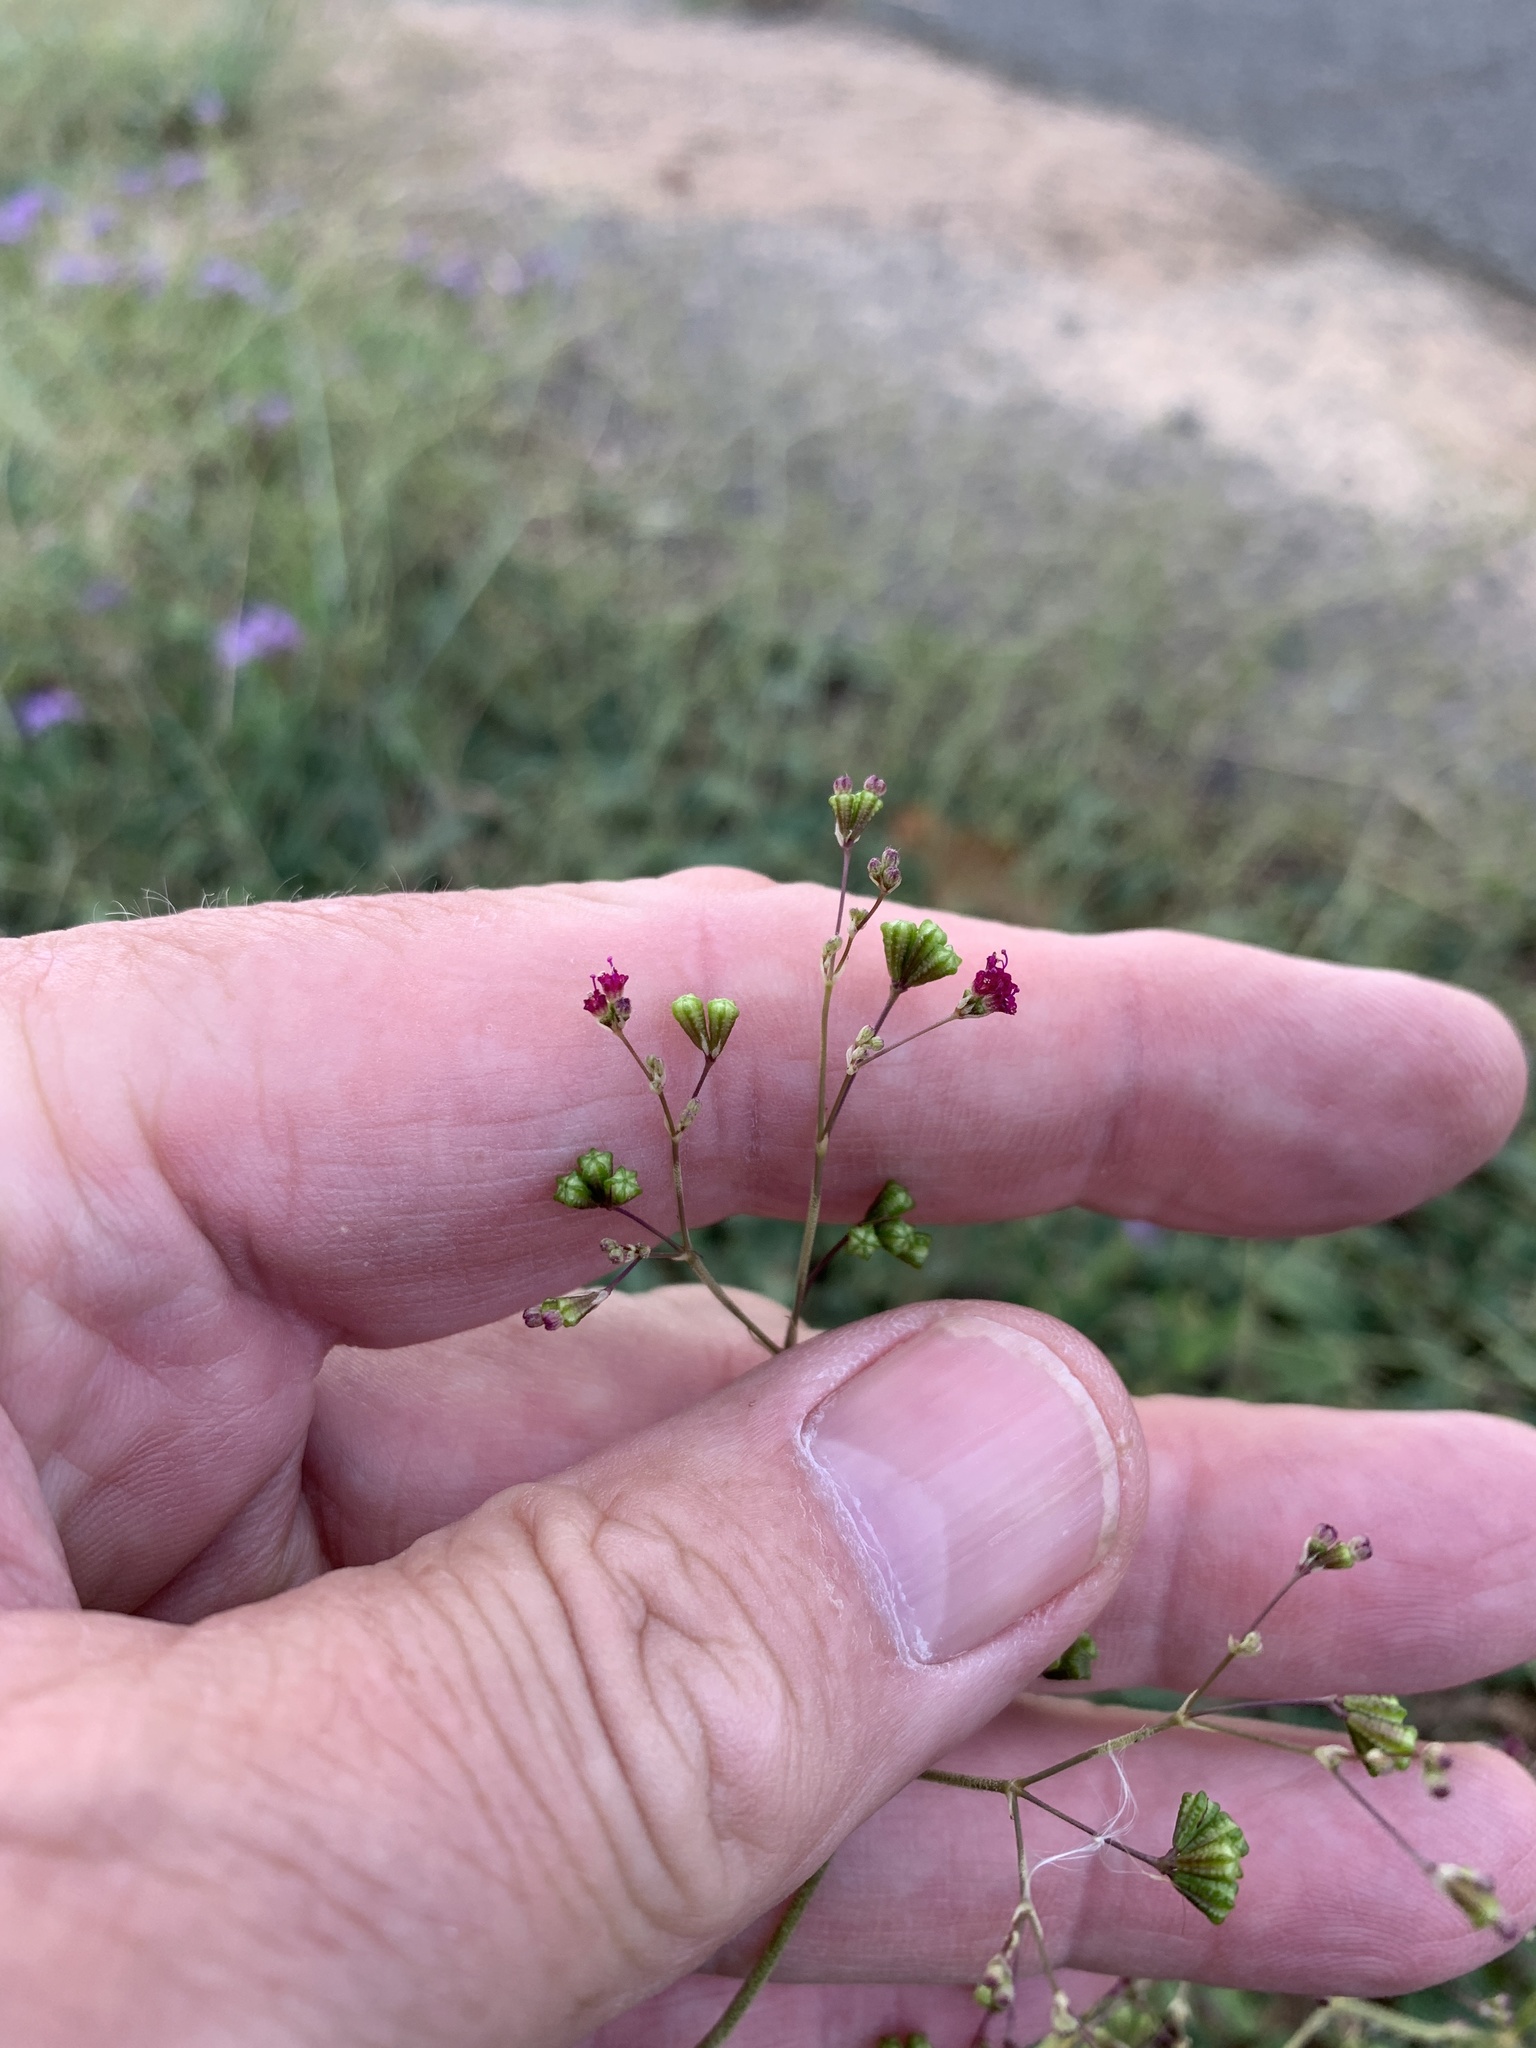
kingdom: Plantae
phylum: Tracheophyta
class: Magnoliopsida
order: Caryophyllales
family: Nyctaginaceae
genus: Boerhavia
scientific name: Boerhavia erecta
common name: Erect spiderling
